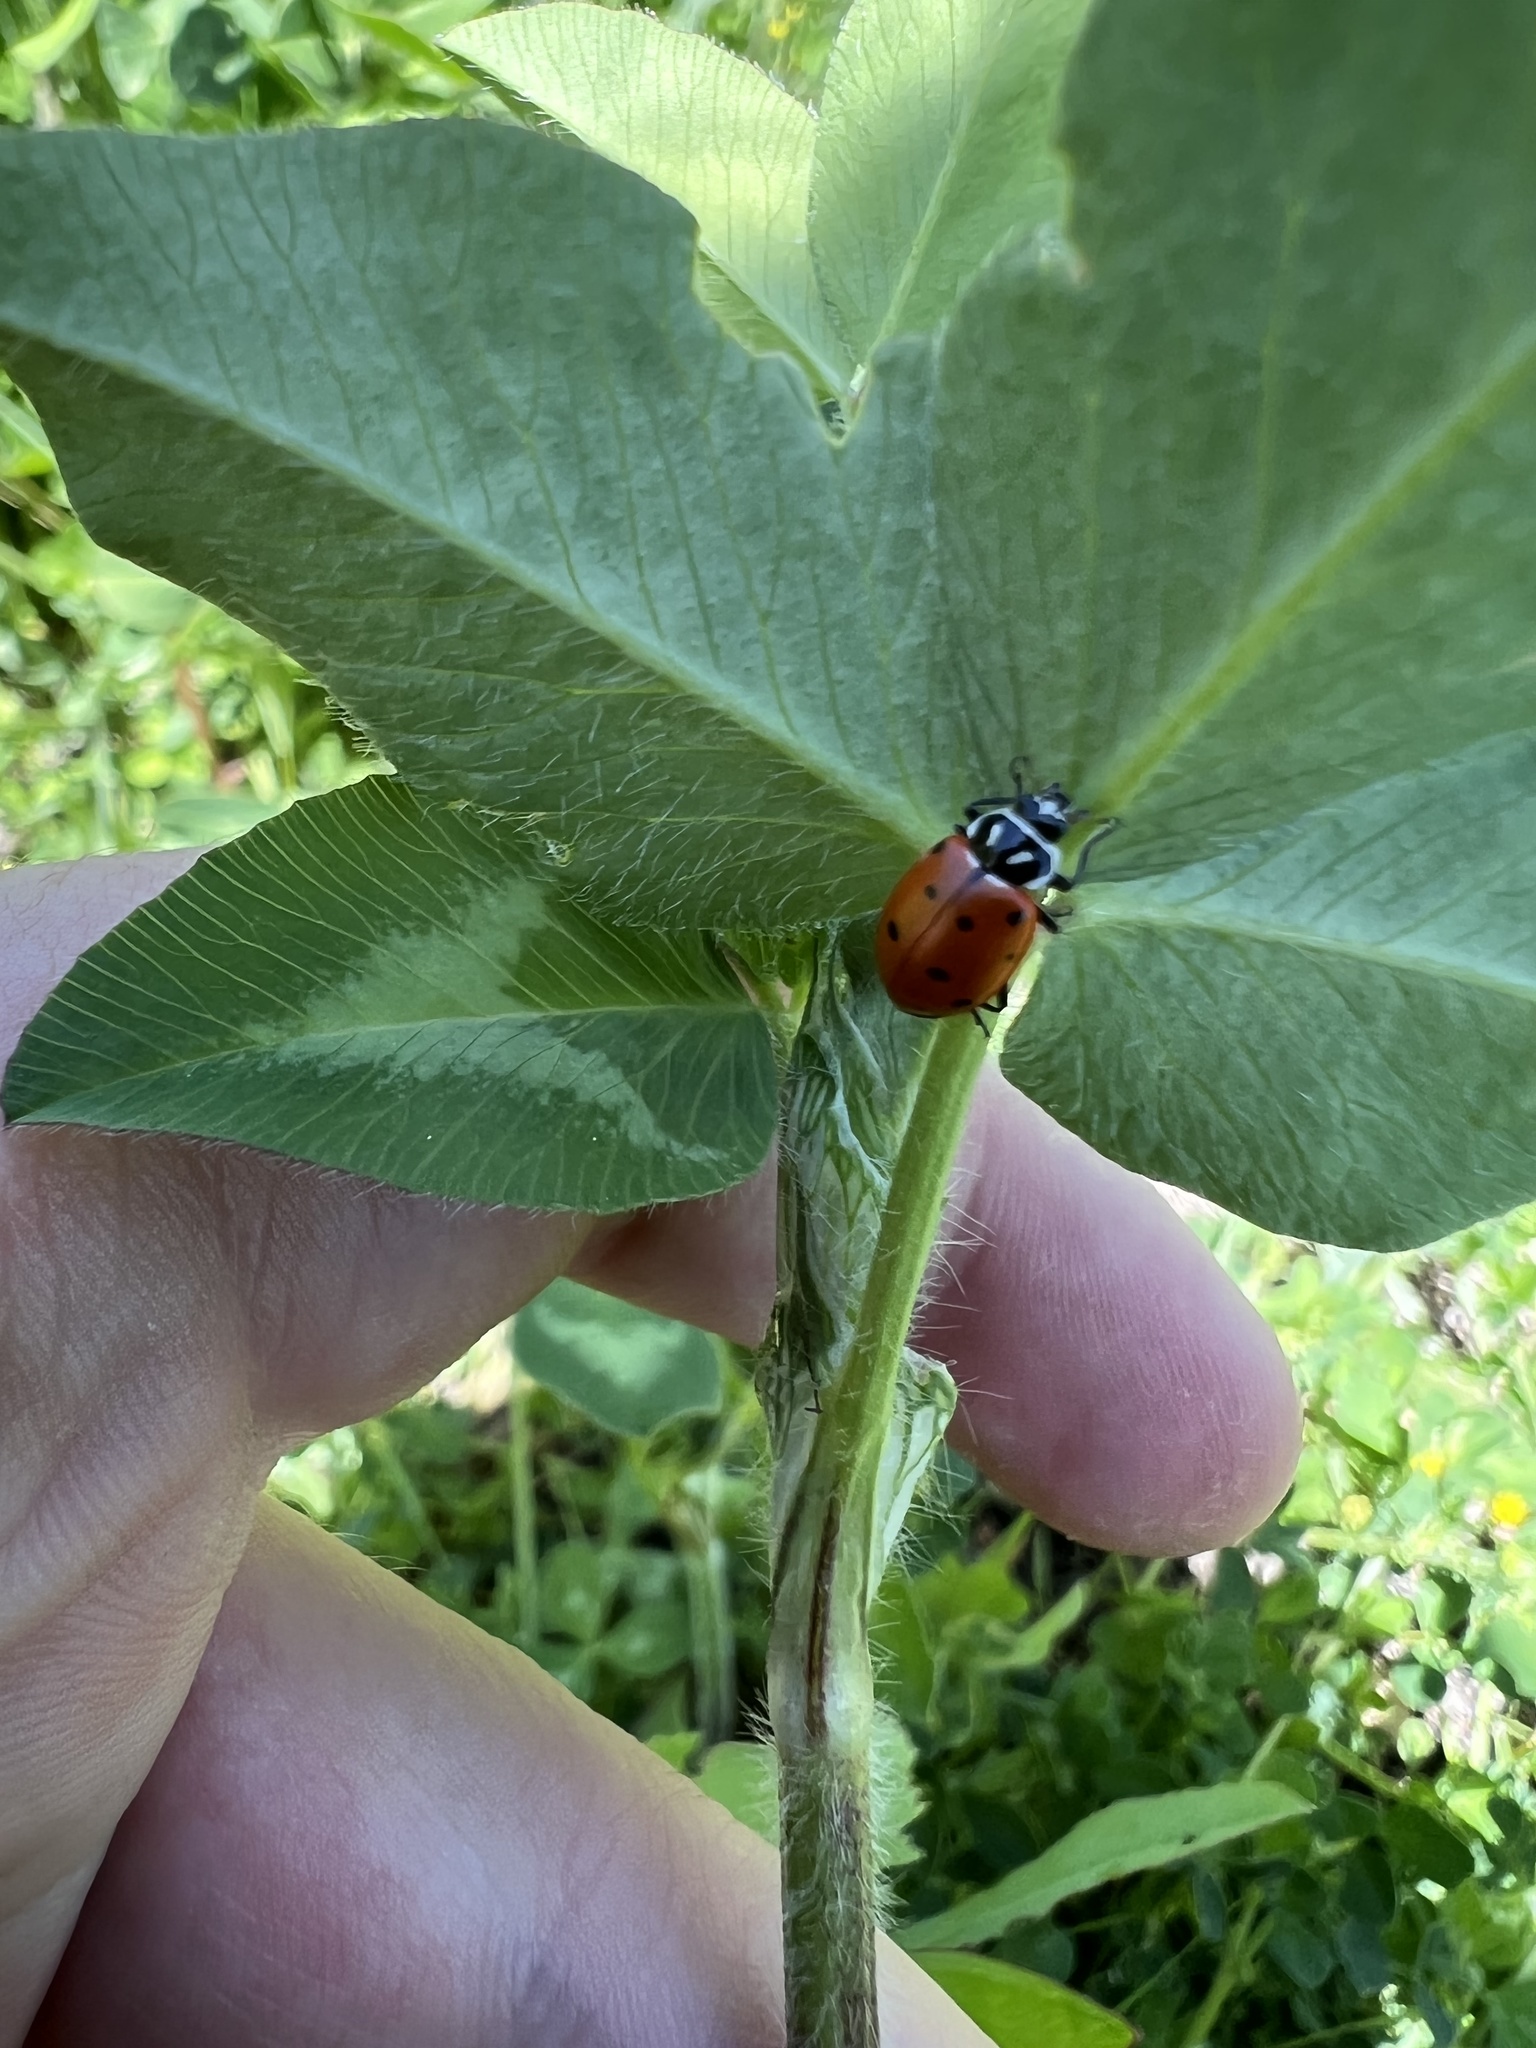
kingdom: Animalia
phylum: Arthropoda
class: Insecta
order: Coleoptera
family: Coccinellidae
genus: Hippodamia
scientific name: Hippodamia convergens
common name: Convergent lady beetle
